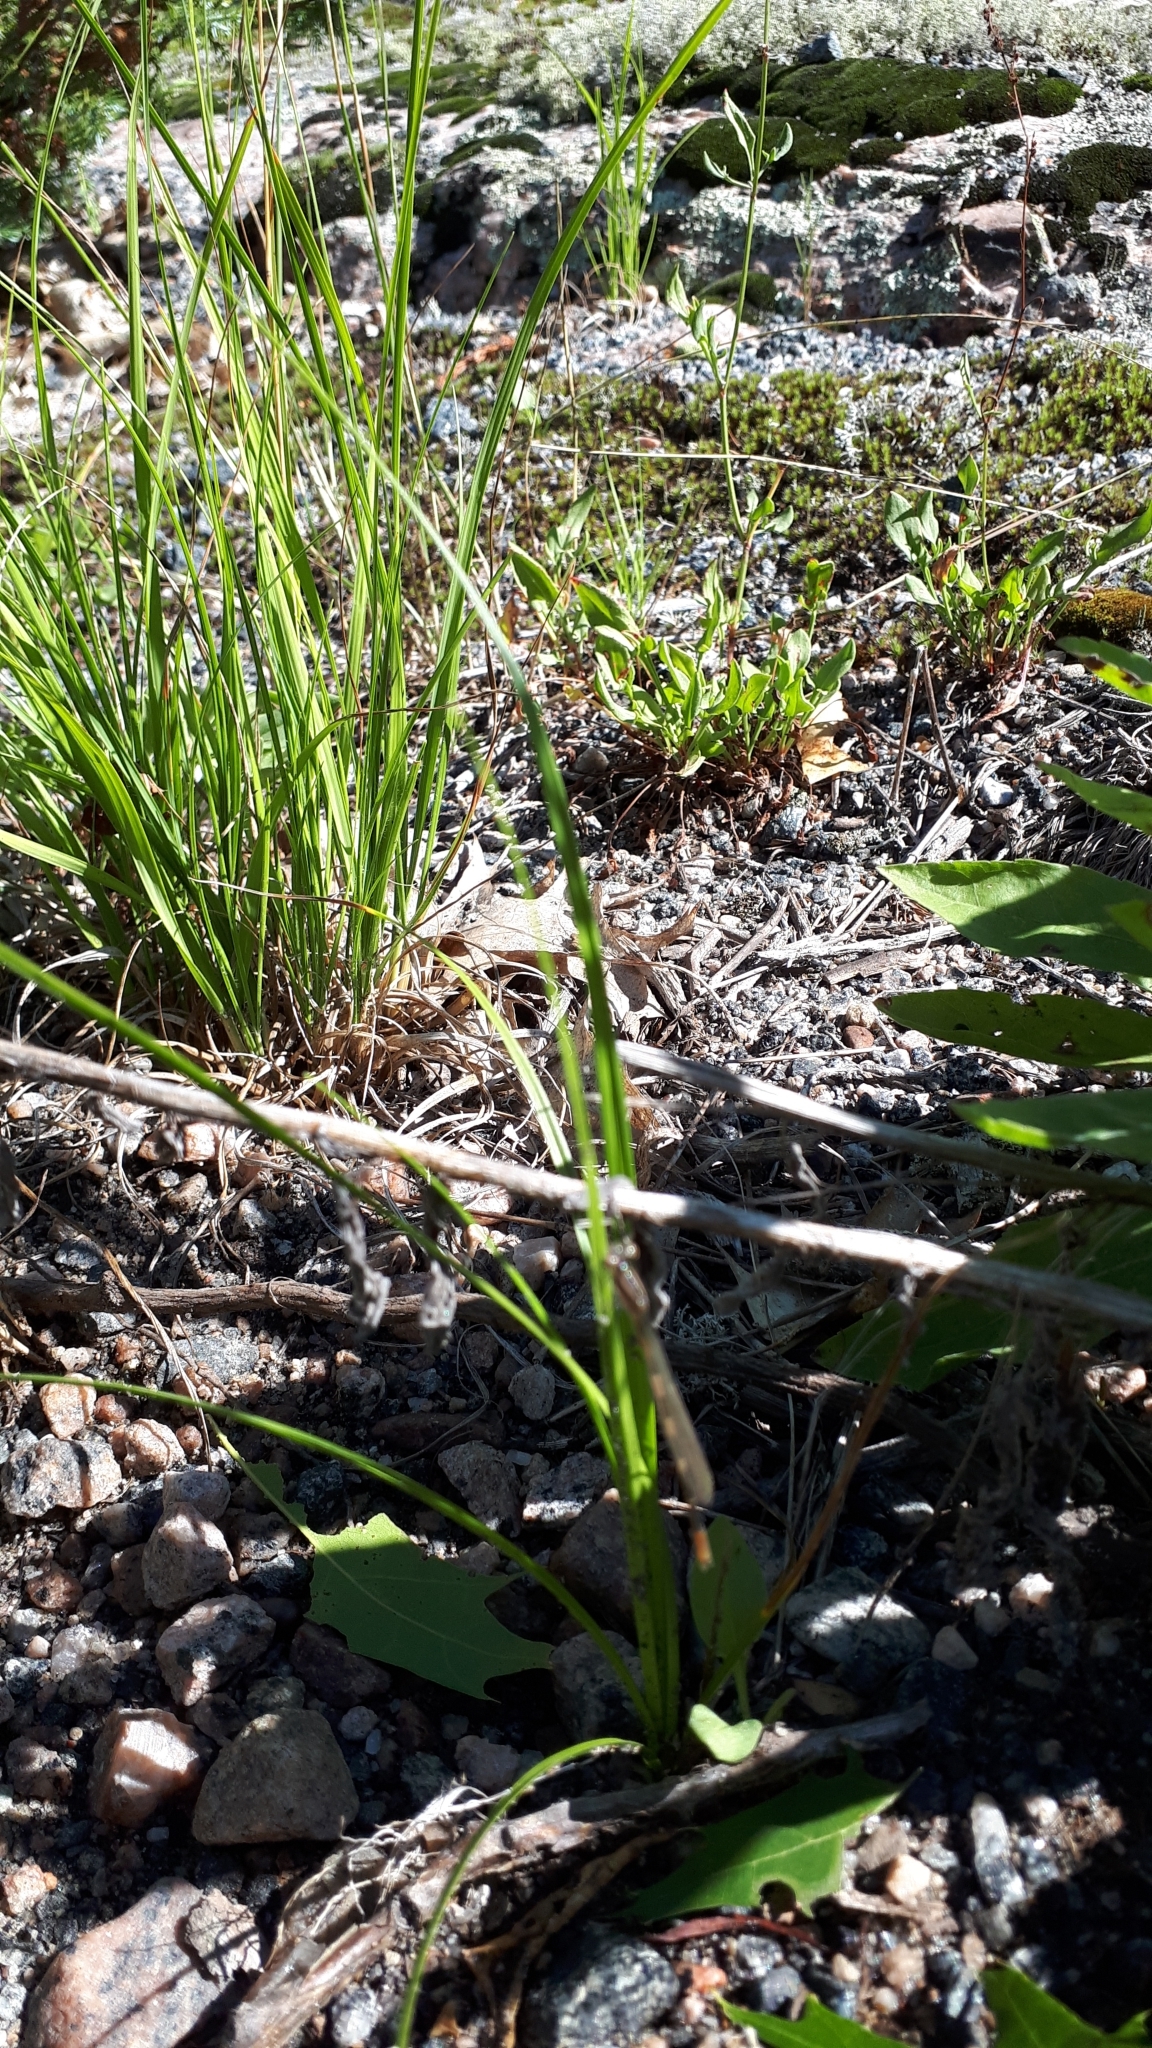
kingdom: Animalia
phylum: Arthropoda
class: Insecta
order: Odonata
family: Coenagrionidae
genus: Enallagma
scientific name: Enallagma carunculatum
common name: Tule bluet
